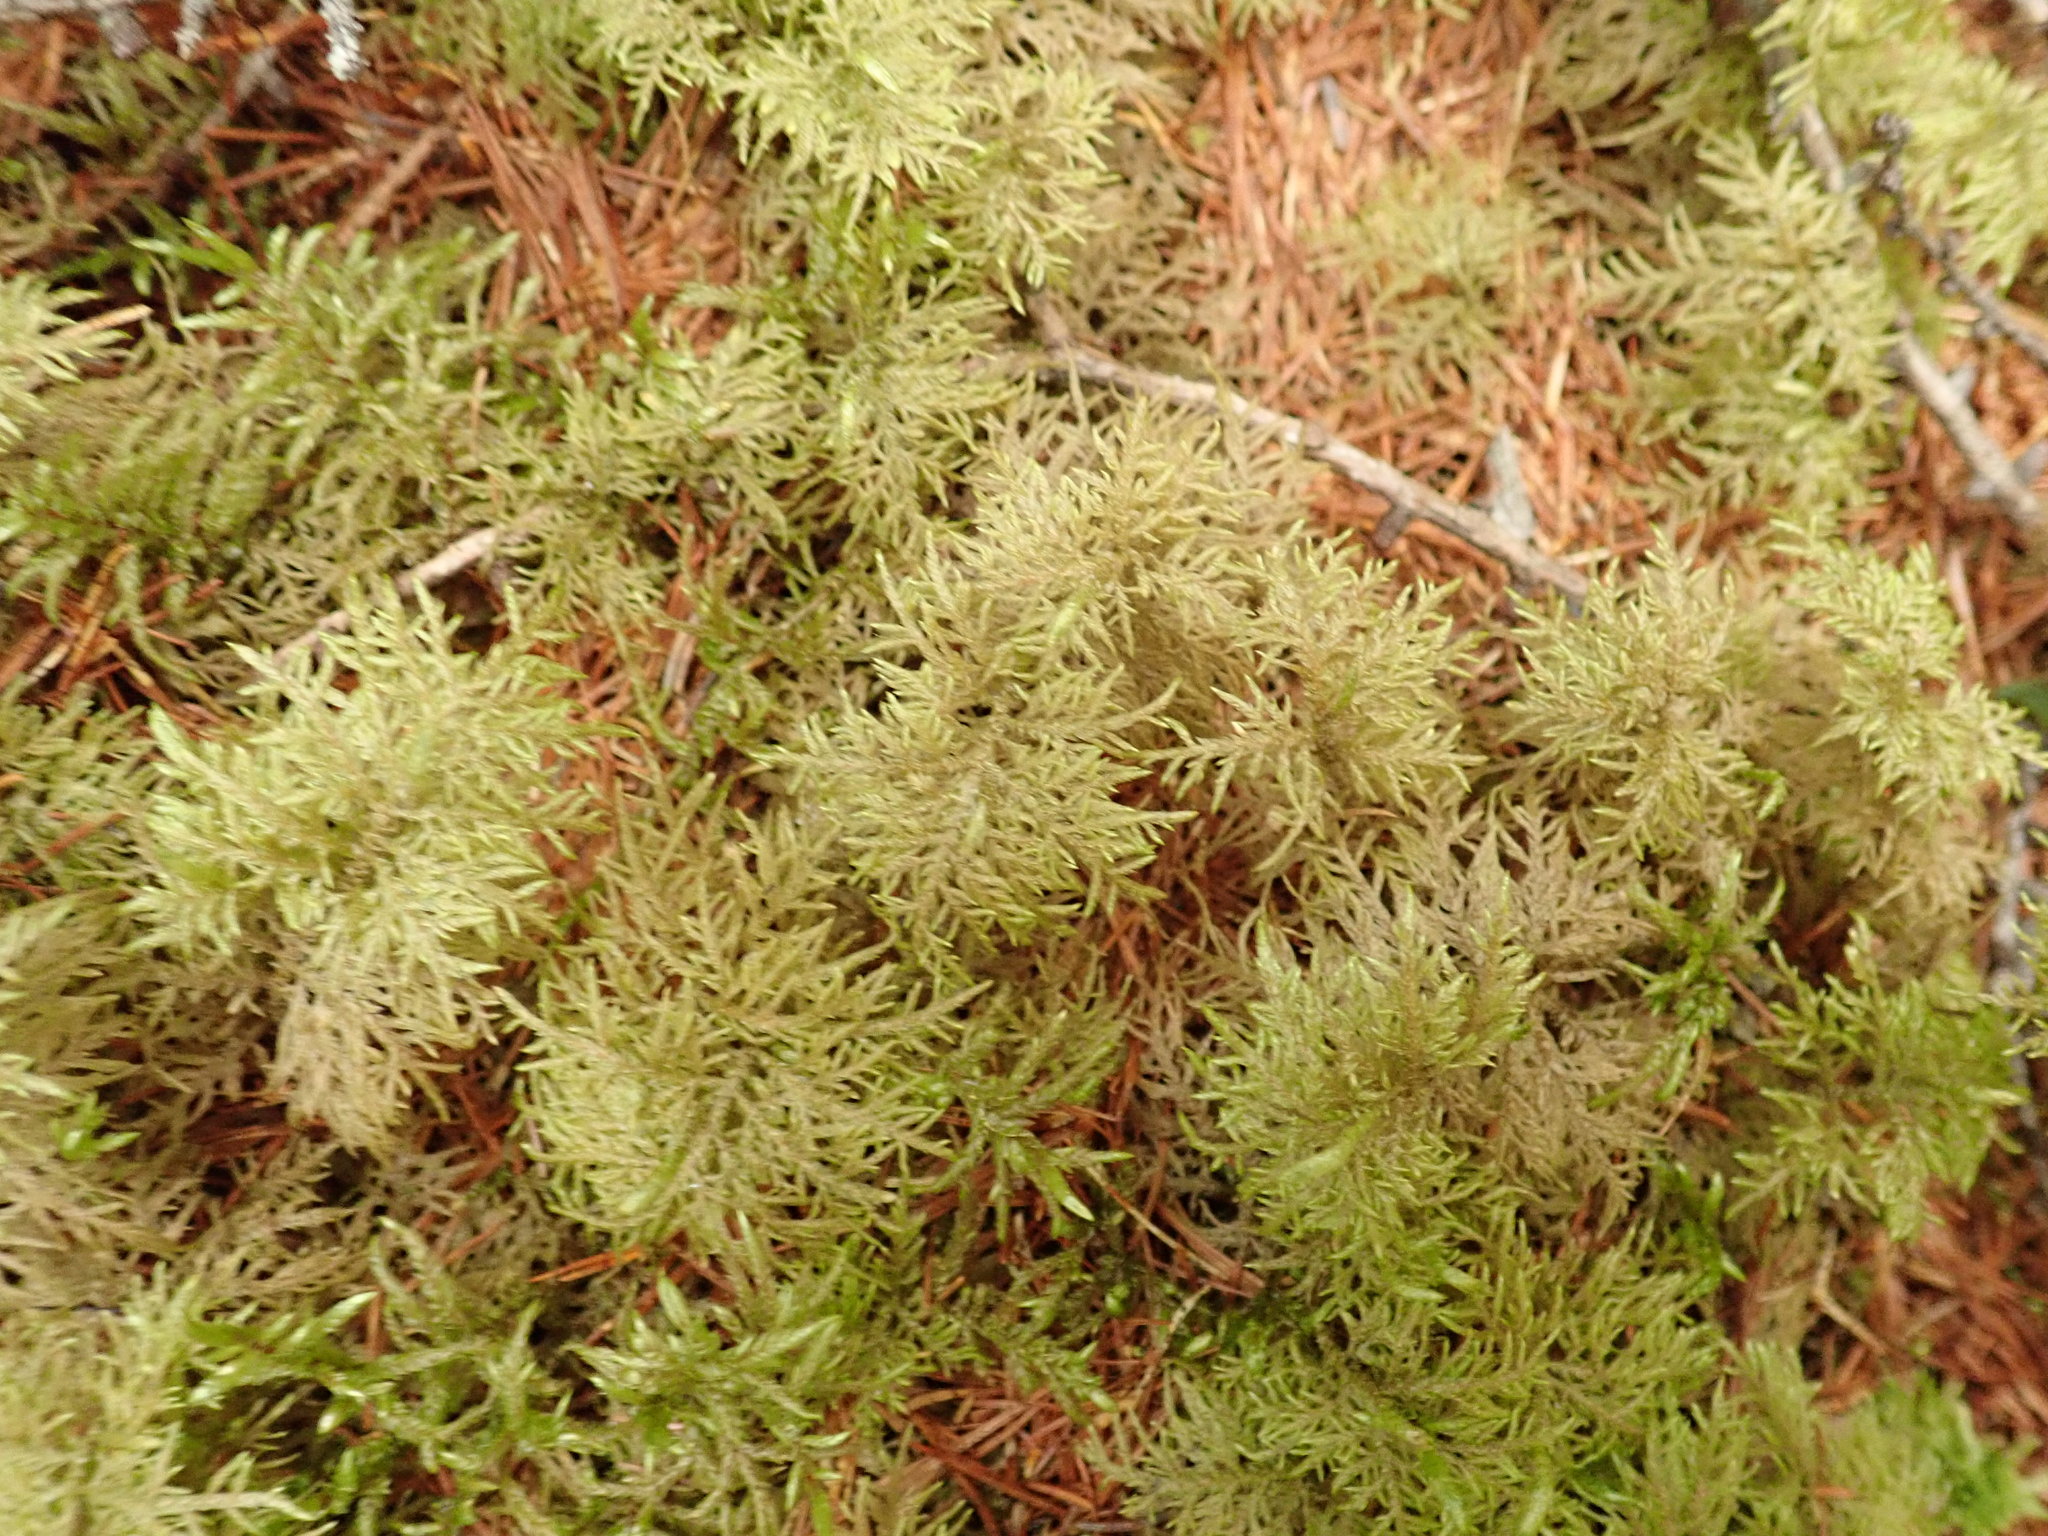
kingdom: Plantae
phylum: Bryophyta
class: Bryopsida
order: Hypnales
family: Hylocomiaceae
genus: Hylocomium
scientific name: Hylocomium splendens
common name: Stairstep moss
